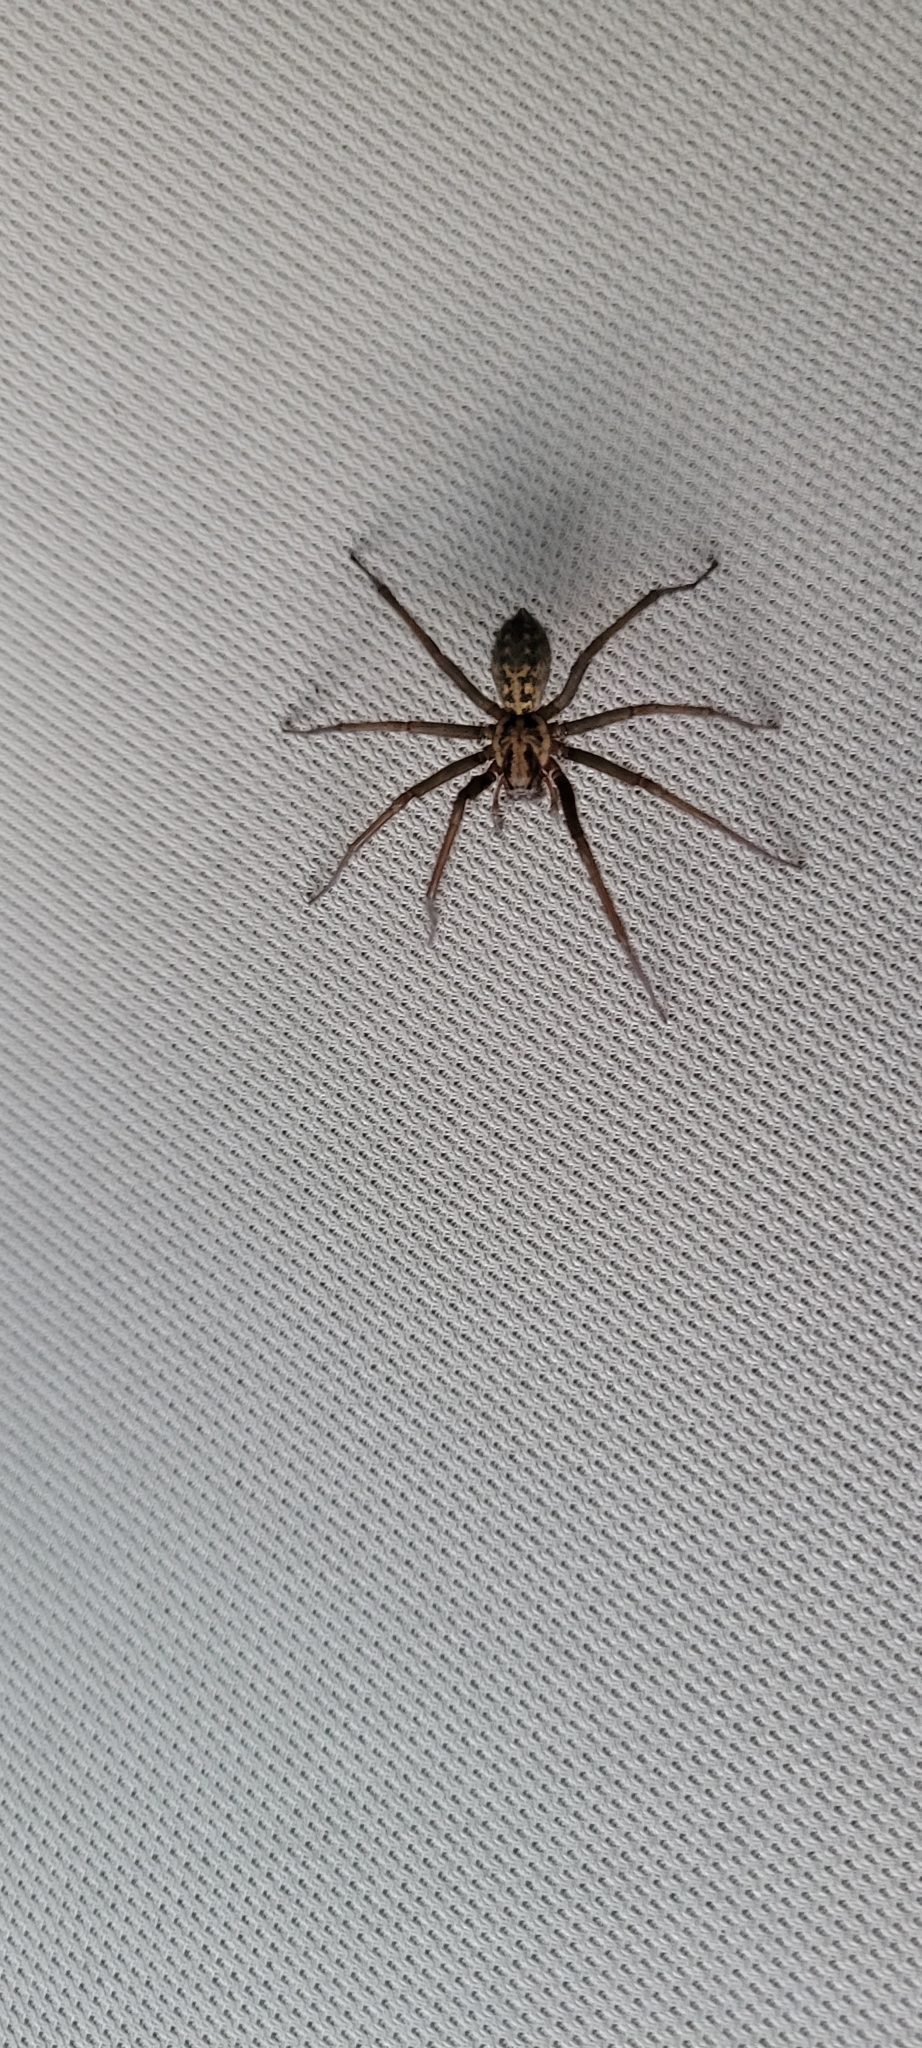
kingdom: Animalia
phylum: Arthropoda
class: Arachnida
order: Araneae
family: Agelenidae
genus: Eratigena
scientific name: Eratigena duellica
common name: Giant house spider
